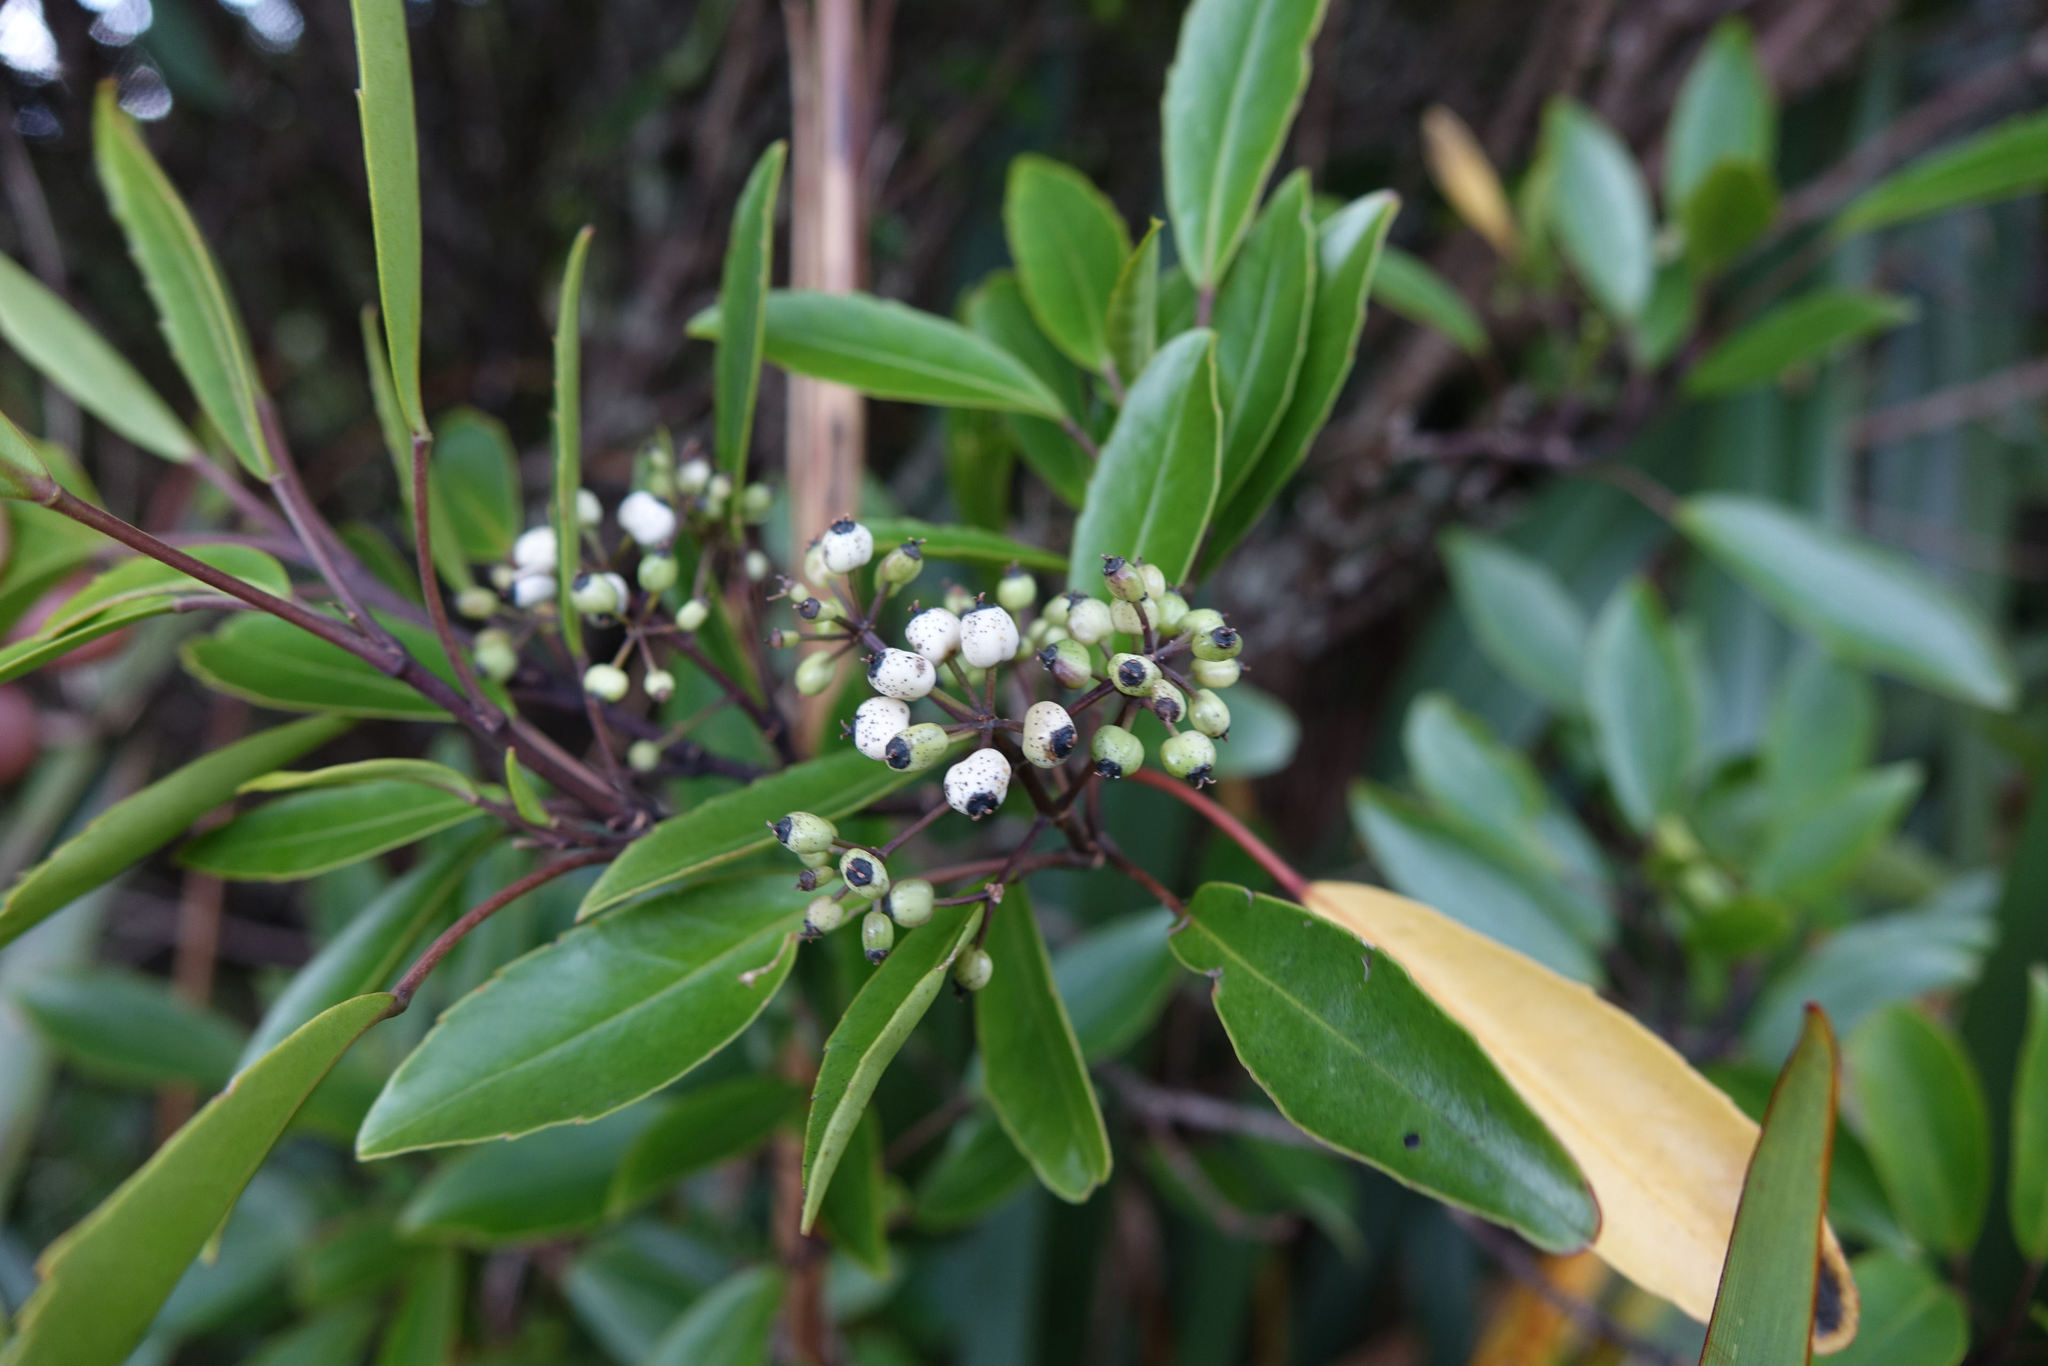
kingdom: Plantae
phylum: Tracheophyta
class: Magnoliopsida
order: Apiales
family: Araliaceae
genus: Raukaua
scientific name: Raukaua simplex
